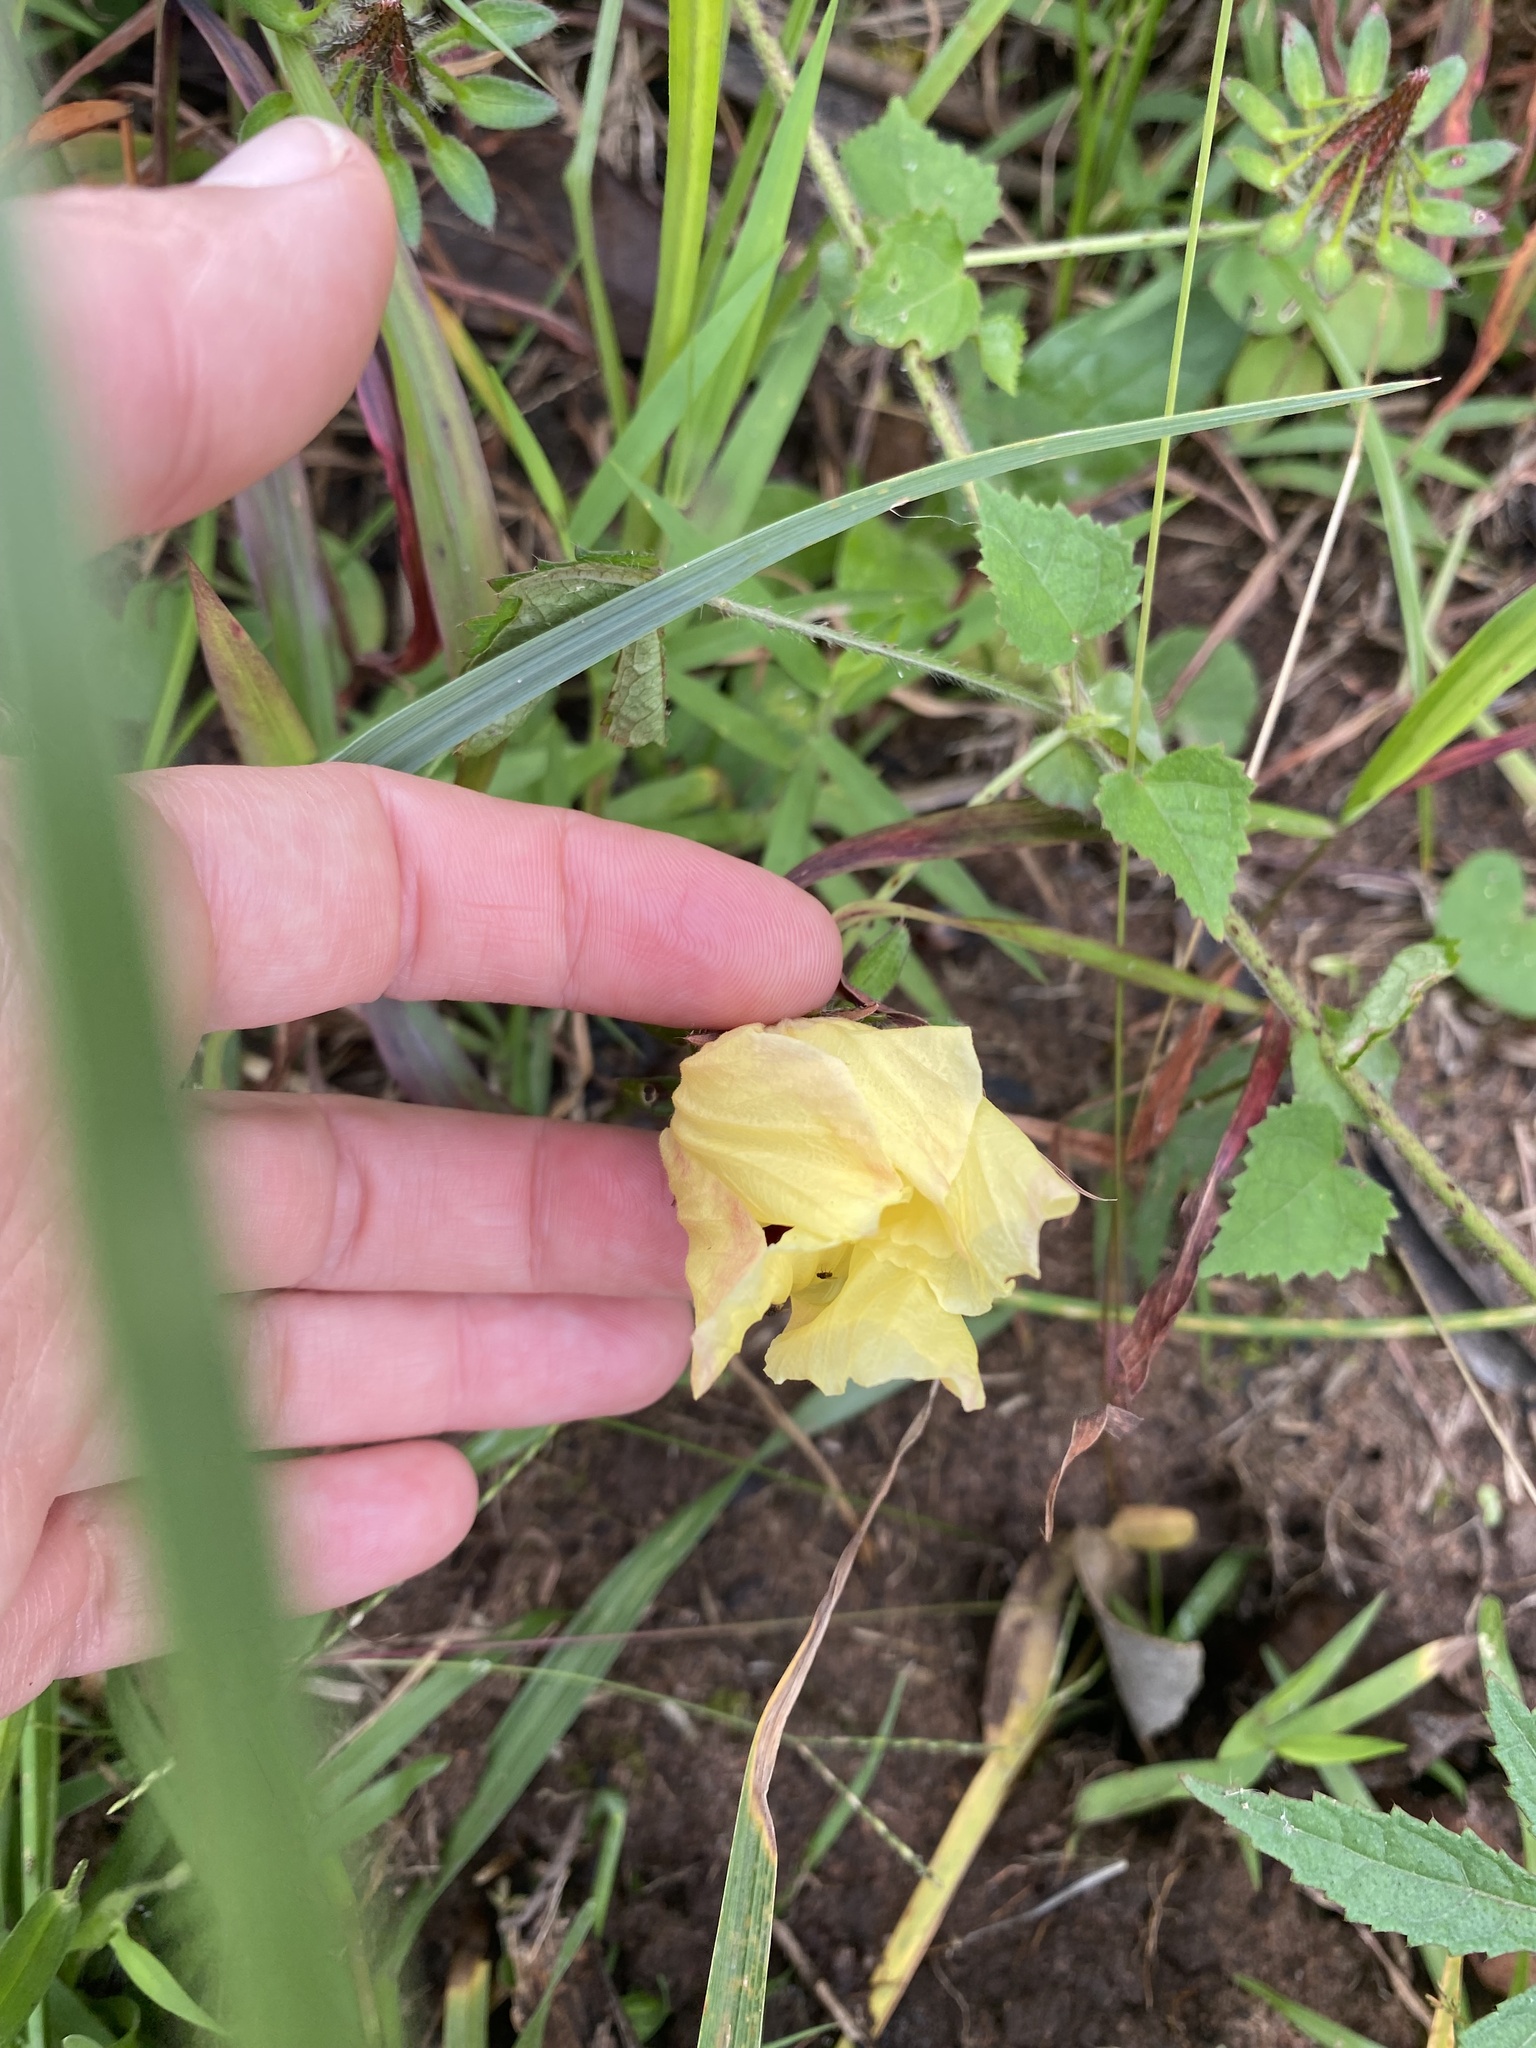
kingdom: Plantae
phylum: Tracheophyta
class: Magnoliopsida
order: Malvales
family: Malvaceae
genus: Hibiscus
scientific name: Hibiscus surattensis
